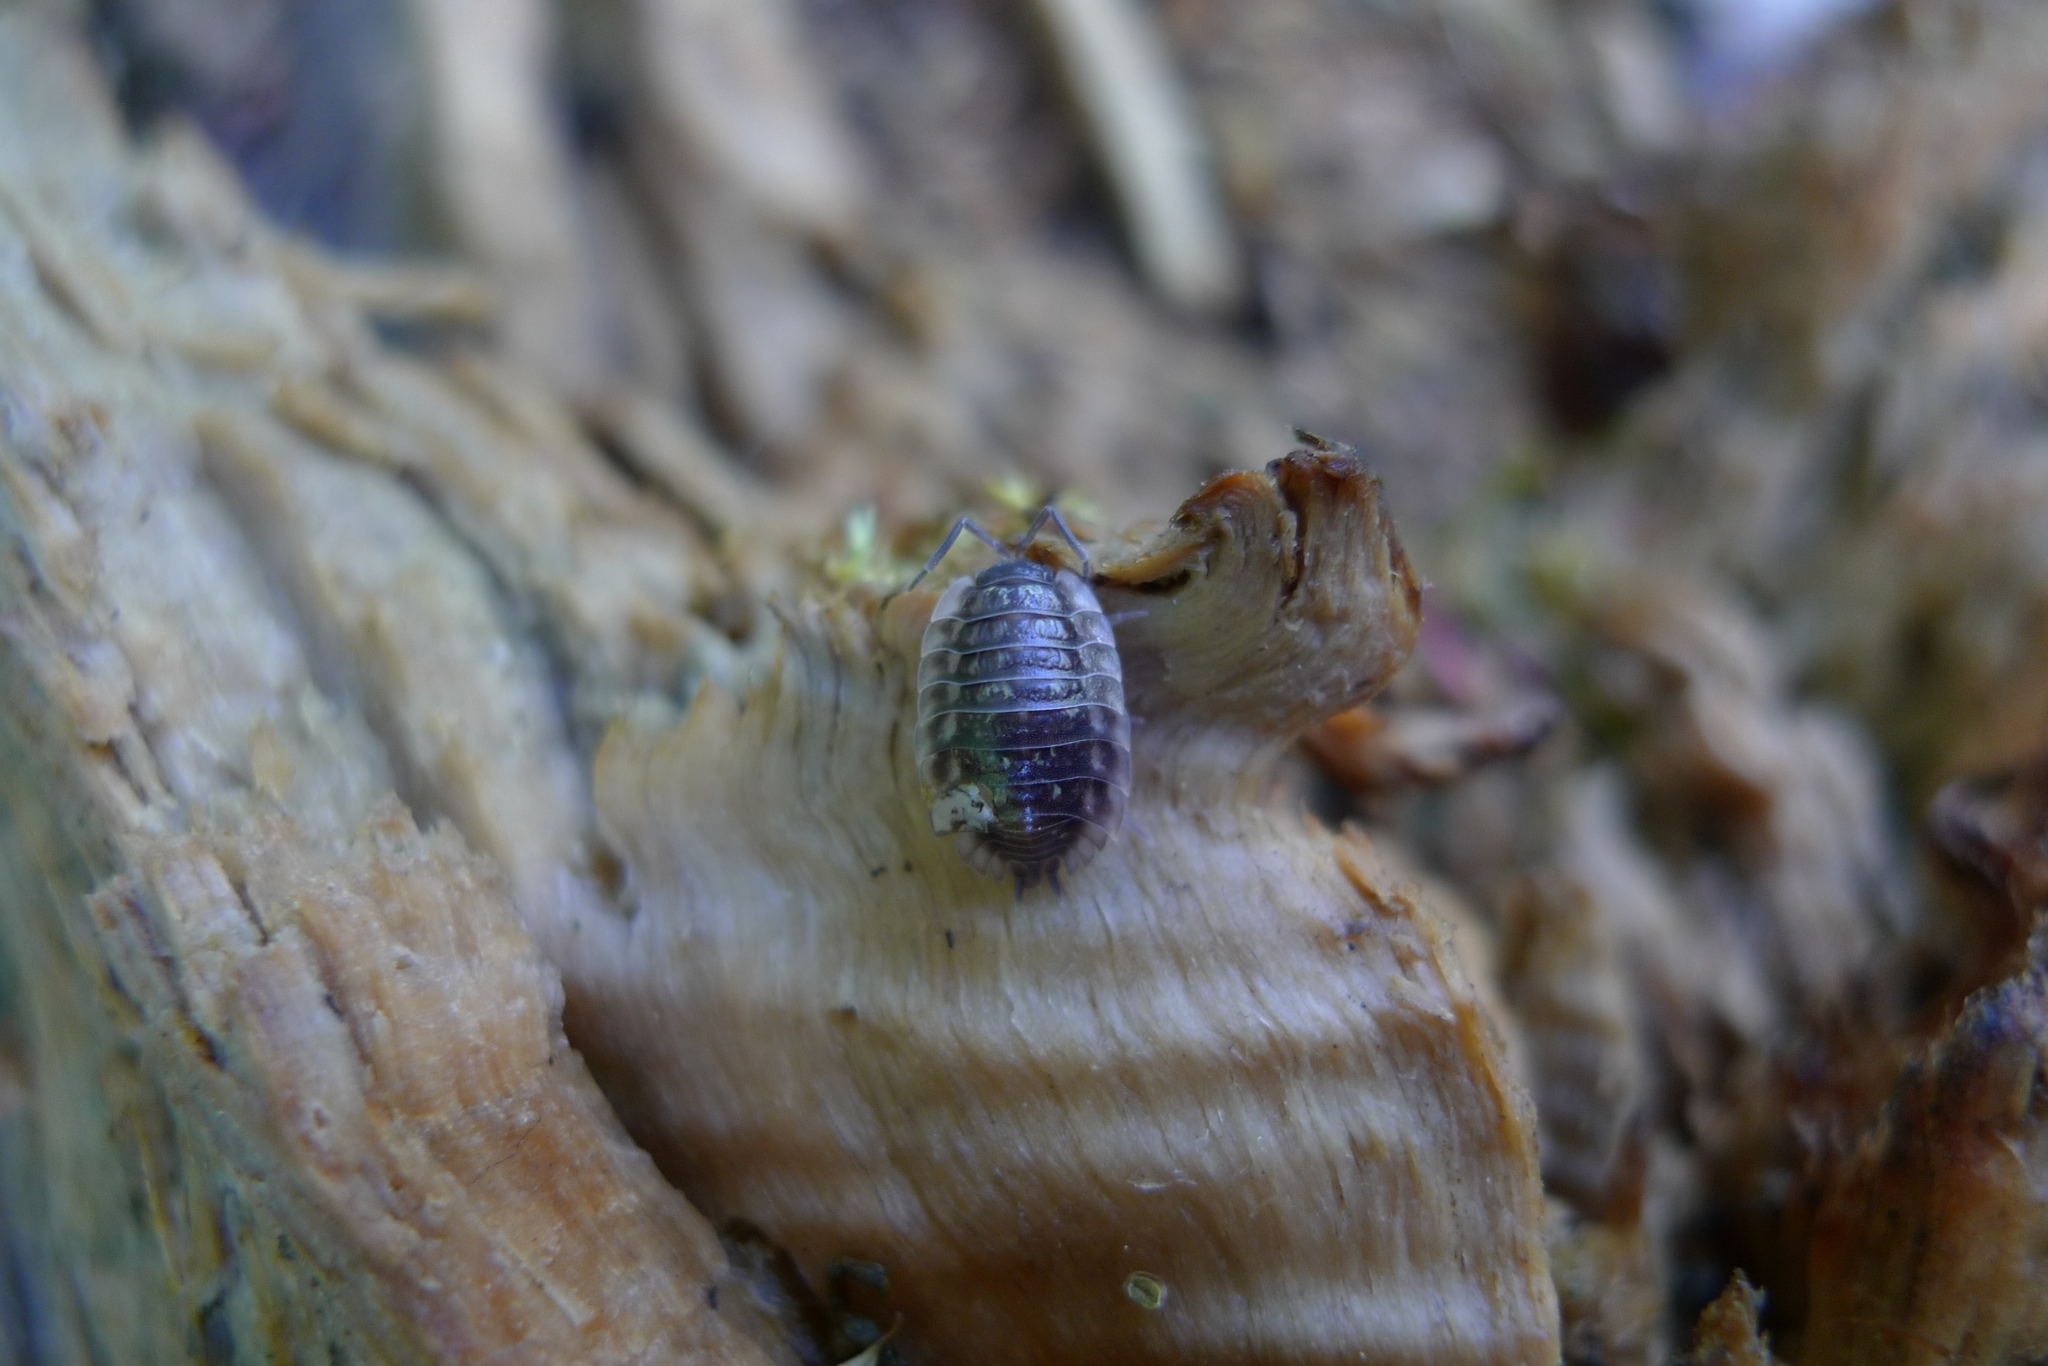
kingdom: Animalia
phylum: Arthropoda
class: Malacostraca
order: Isopoda
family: Oniscidae
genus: Oniscus
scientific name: Oniscus asellus
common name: Common shiny woodlouse
